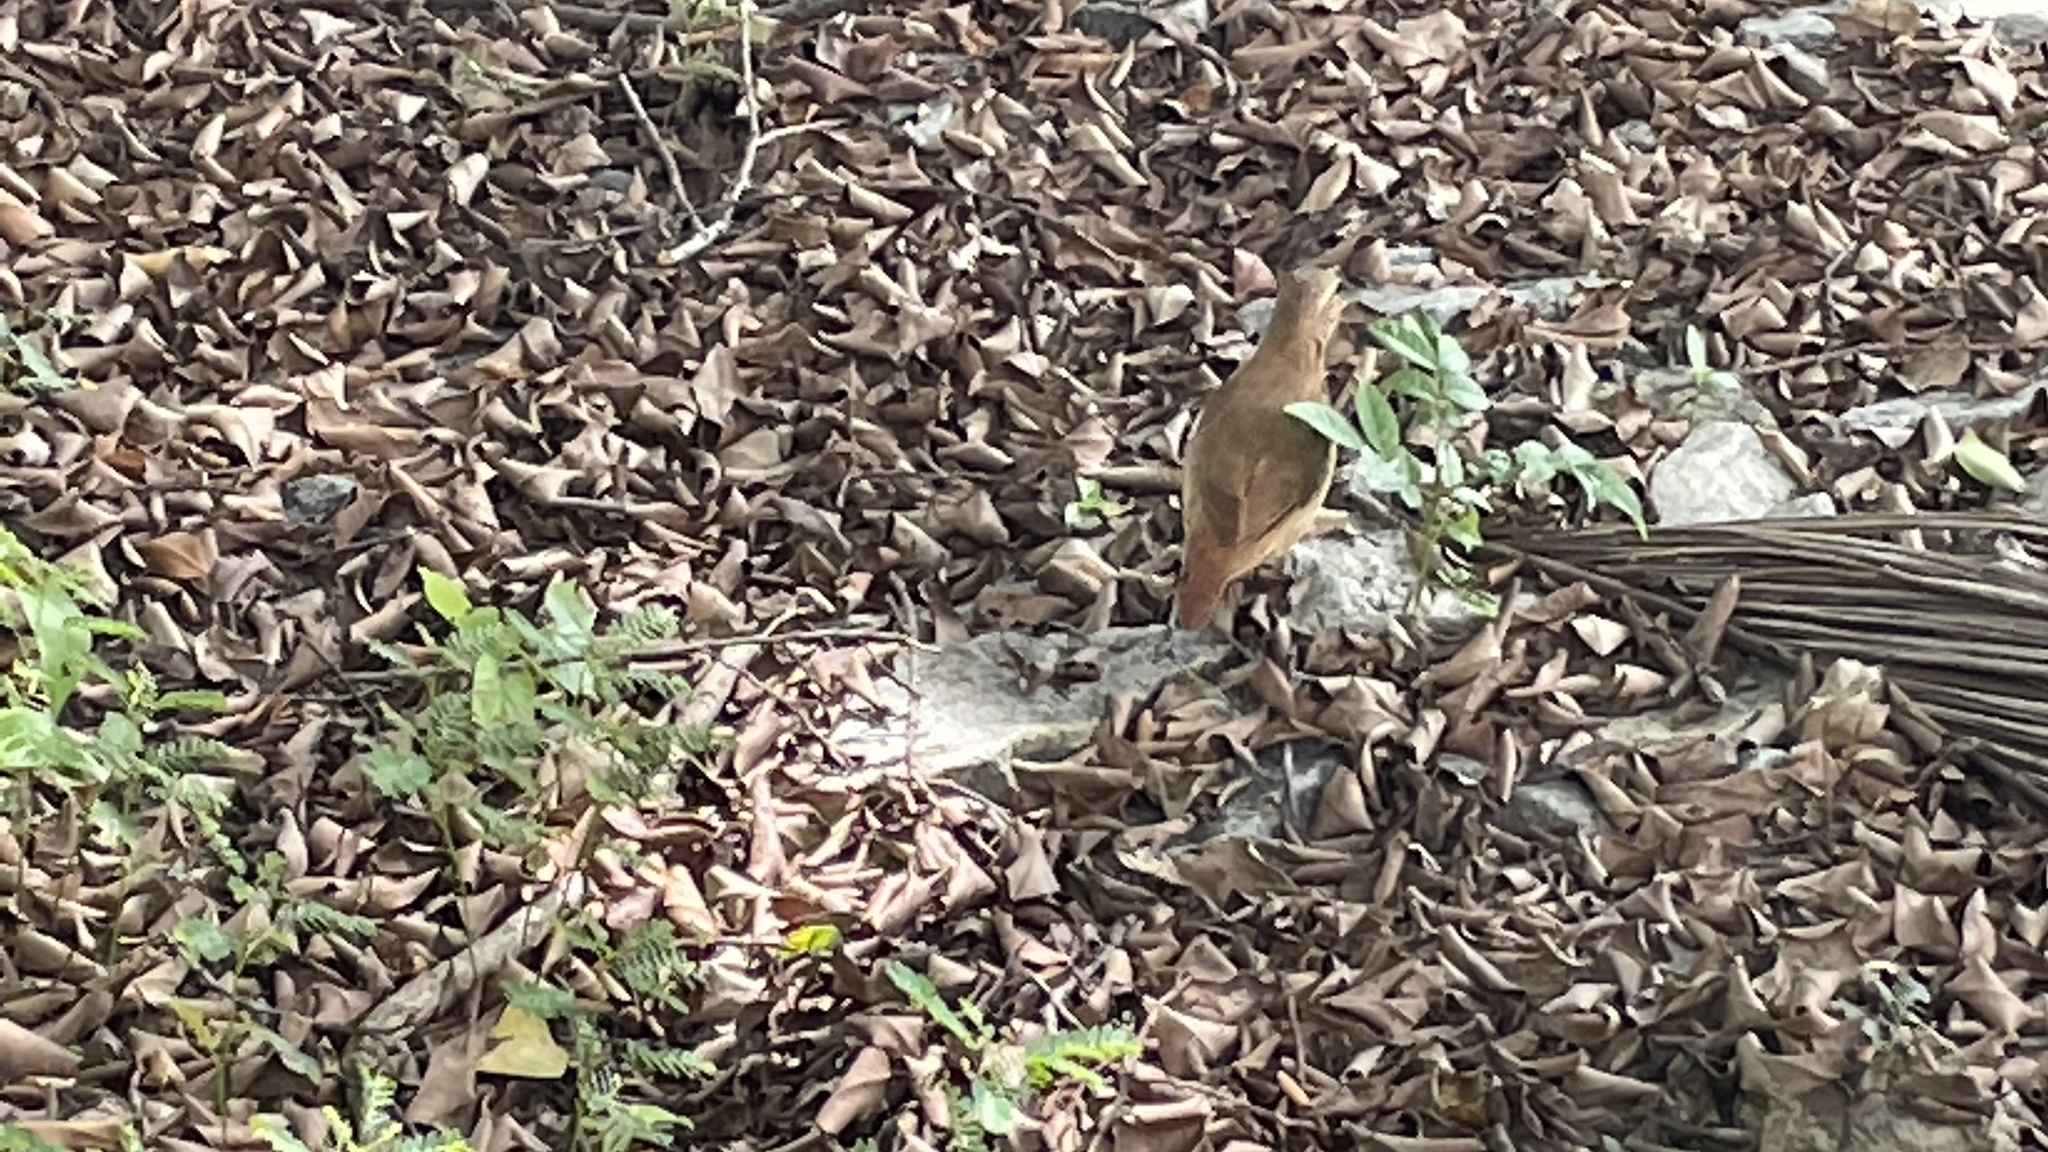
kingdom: Animalia
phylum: Chordata
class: Aves
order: Passeriformes
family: Furnariidae
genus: Furnarius
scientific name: Furnarius rufus
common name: Rufous hornero
